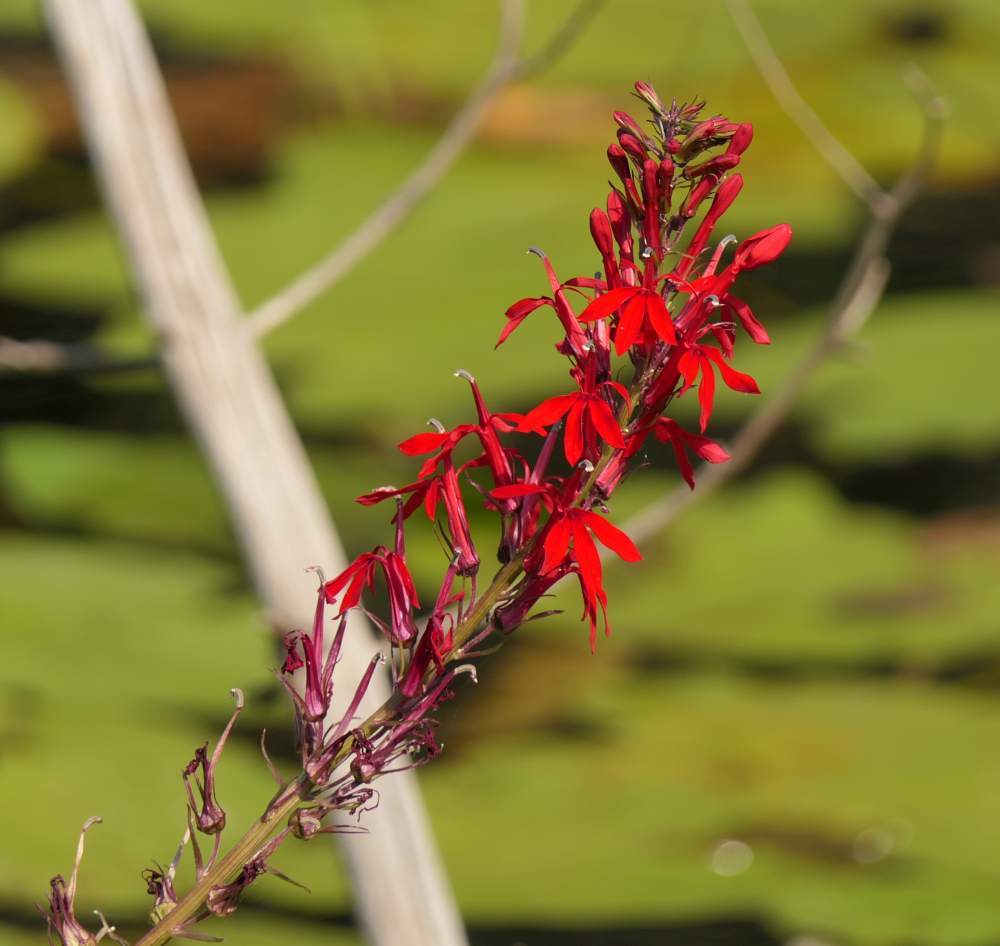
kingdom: Plantae
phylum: Tracheophyta
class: Magnoliopsida
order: Asterales
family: Campanulaceae
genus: Lobelia
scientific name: Lobelia cardinalis
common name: Cardinal flower
